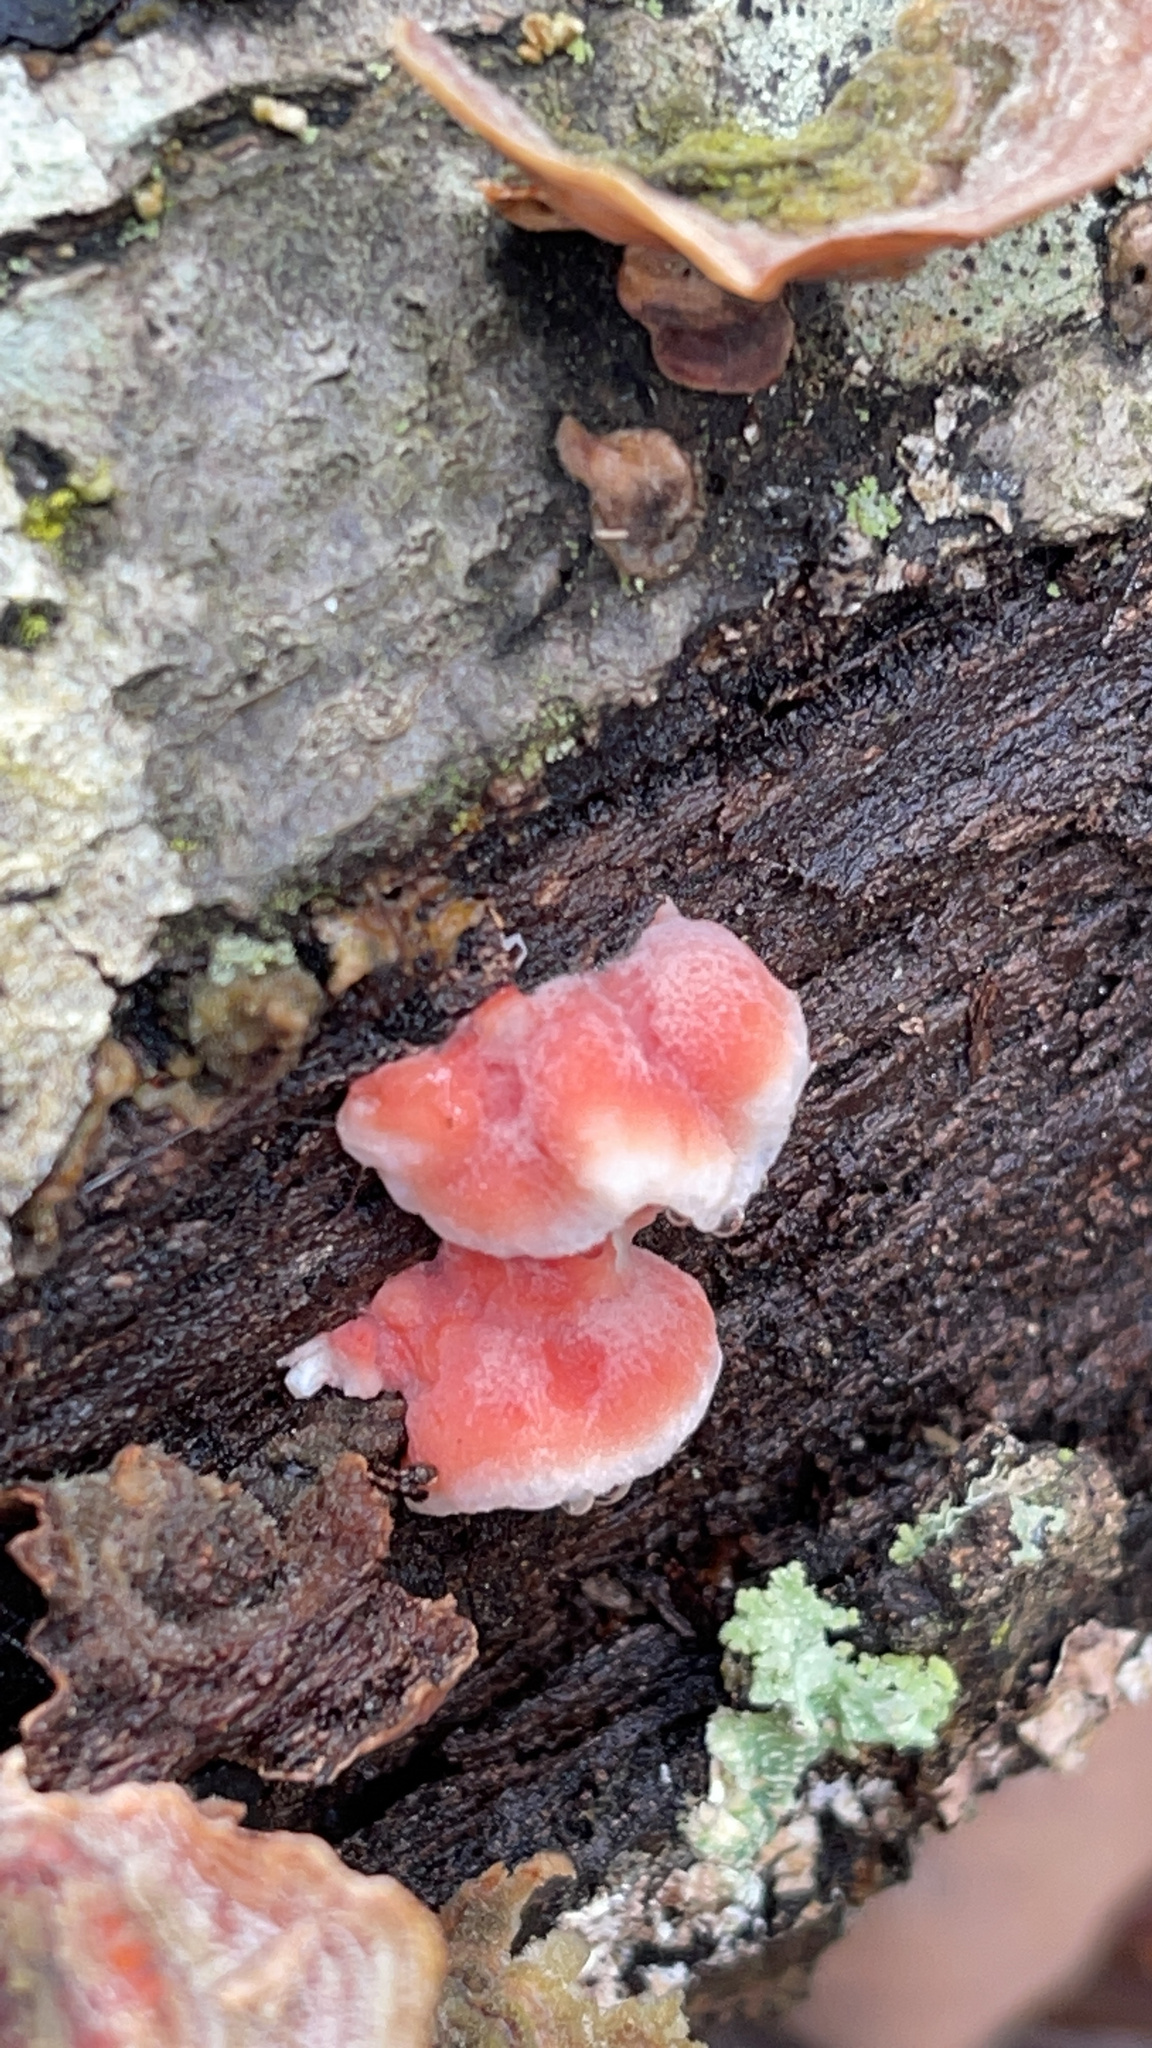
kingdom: Fungi
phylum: Basidiomycota
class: Agaricomycetes
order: Polyporales
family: Irpicaceae
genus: Byssomerulius
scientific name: Byssomerulius incarnatus
